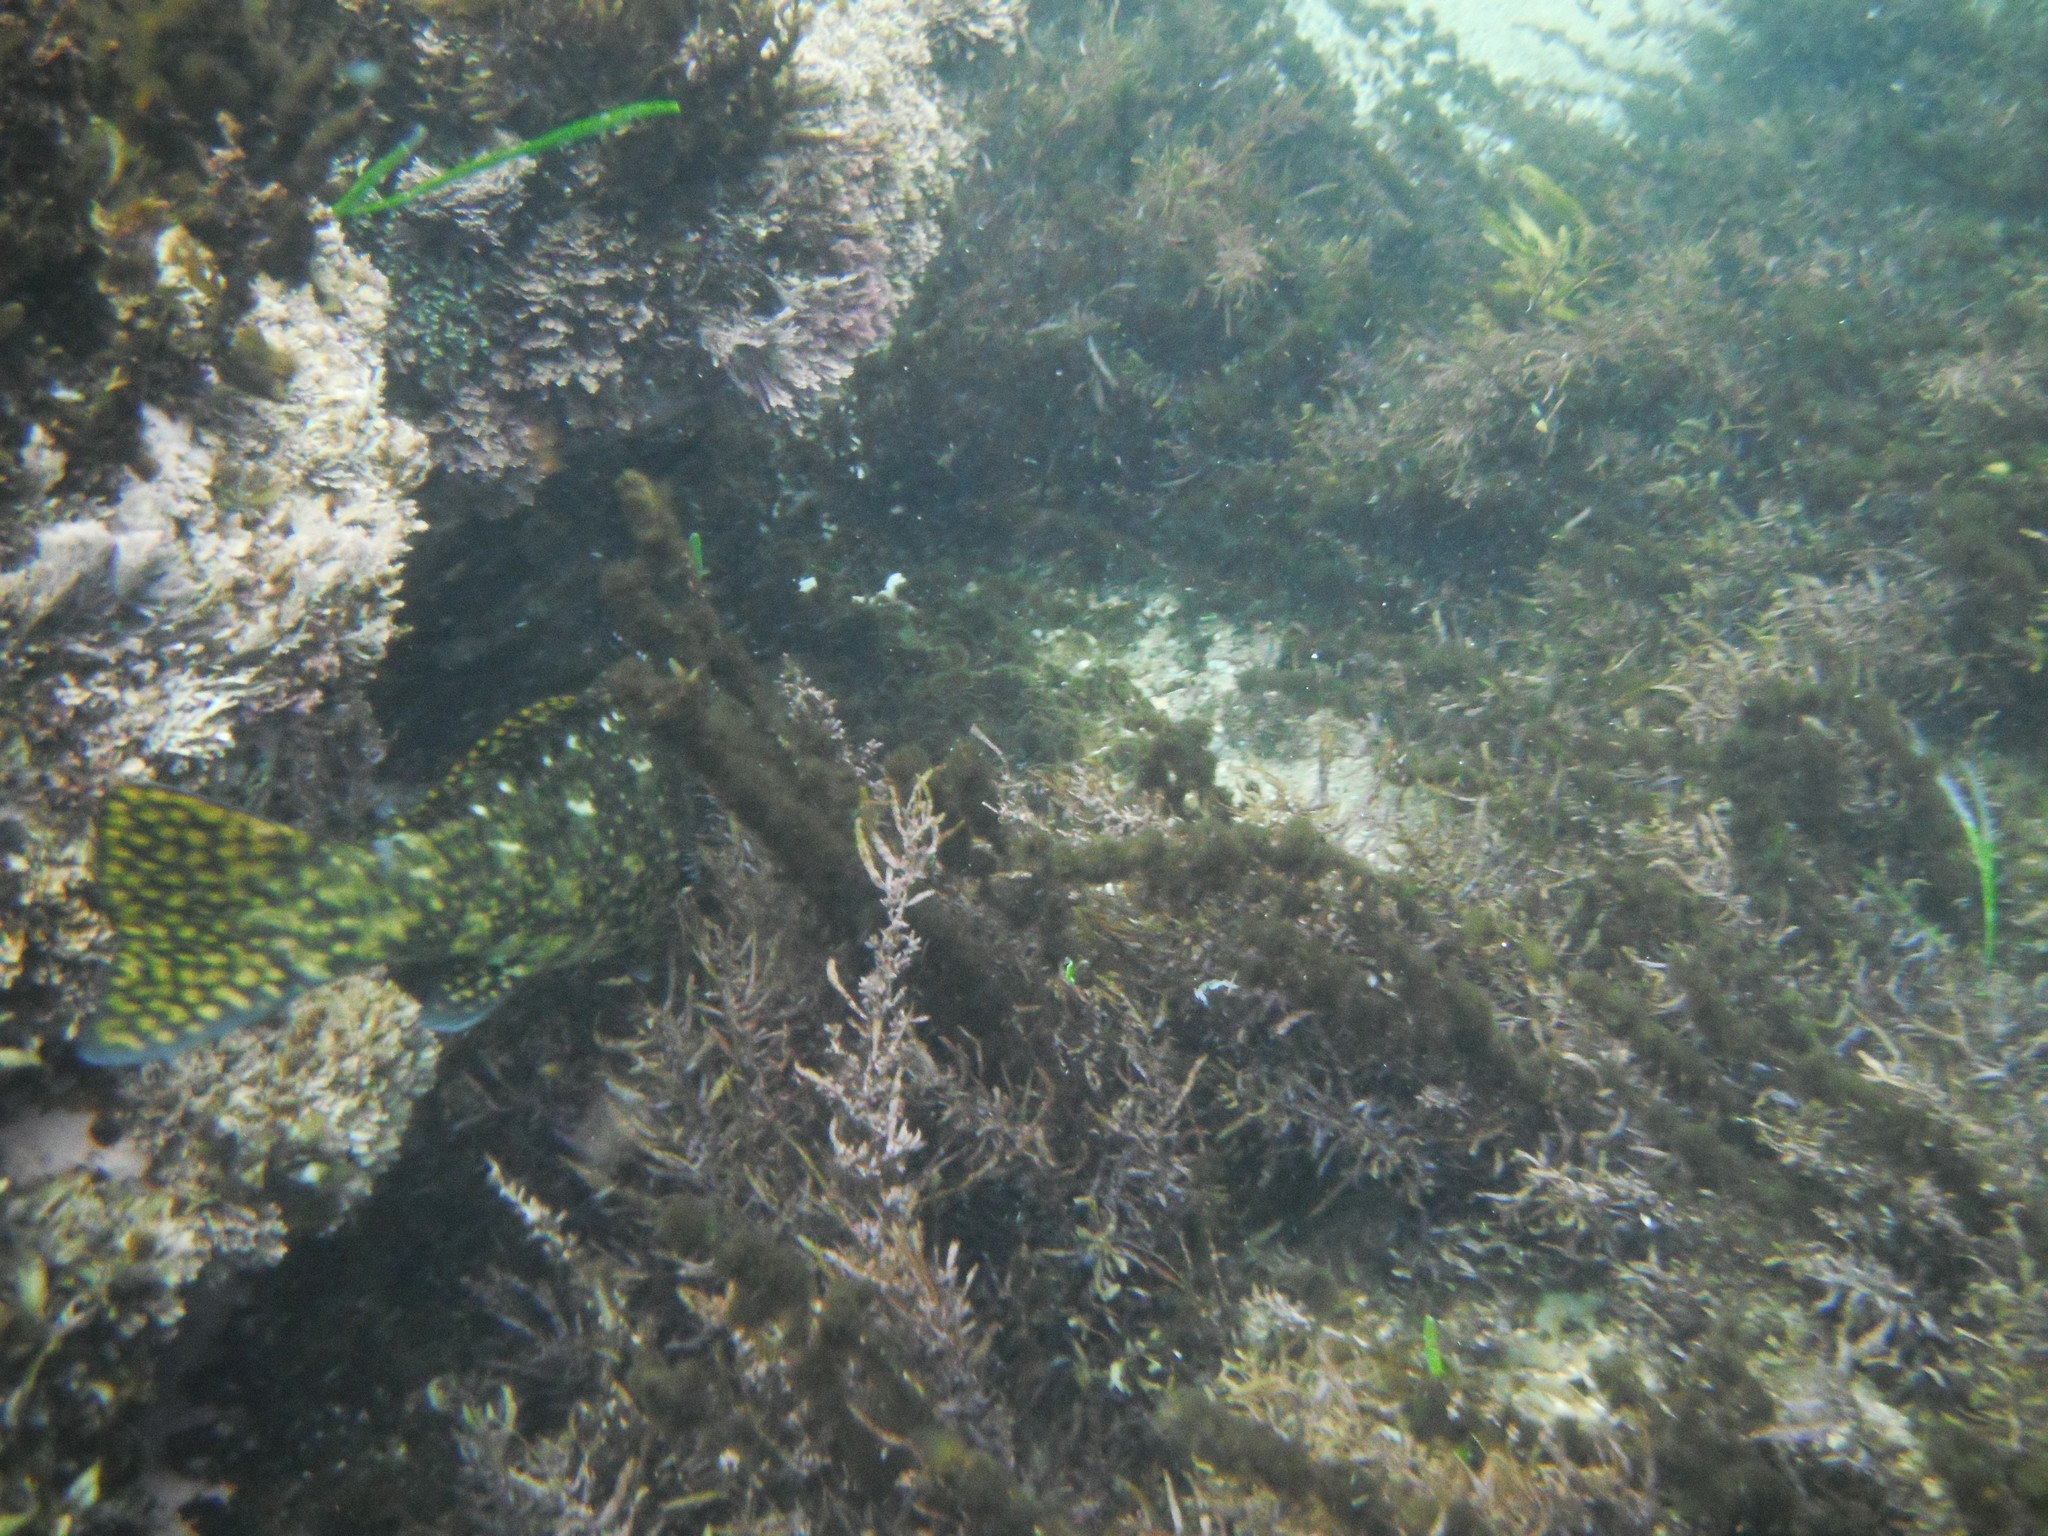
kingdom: Animalia
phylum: Chordata
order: Perciformes
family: Aplodactylidae
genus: Aplodactylus
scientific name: Aplodactylus lophodon
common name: Cockatoo fish
